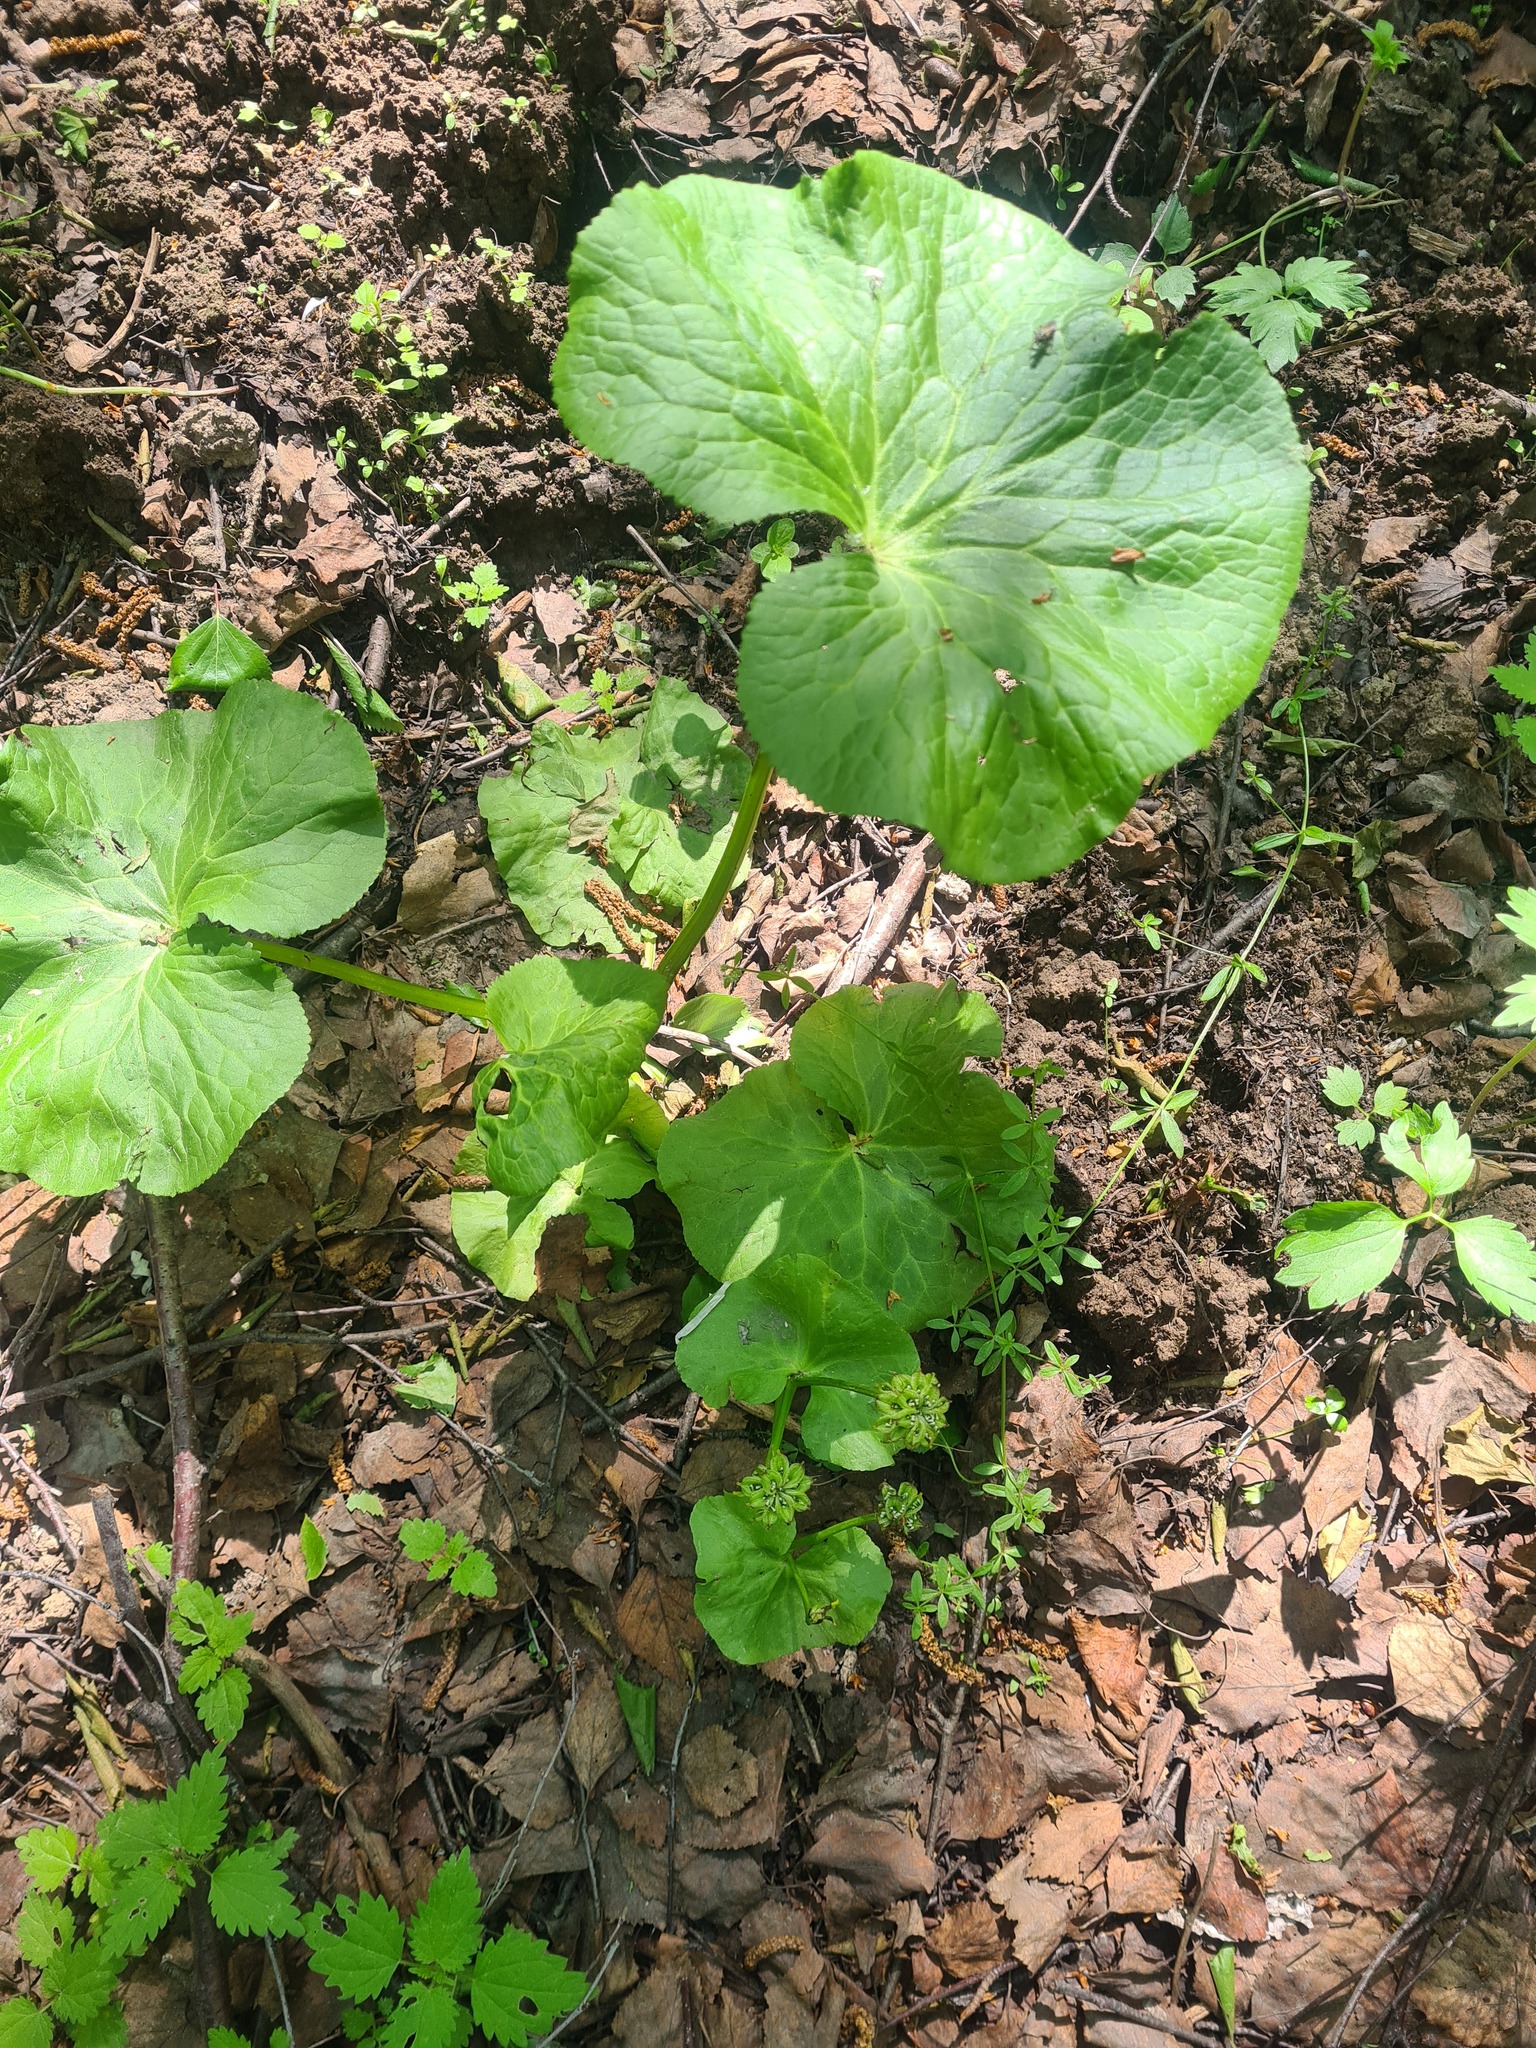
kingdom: Plantae
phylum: Tracheophyta
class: Magnoliopsida
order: Ranunculales
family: Ranunculaceae
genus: Caltha
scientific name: Caltha palustris
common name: Marsh marigold
